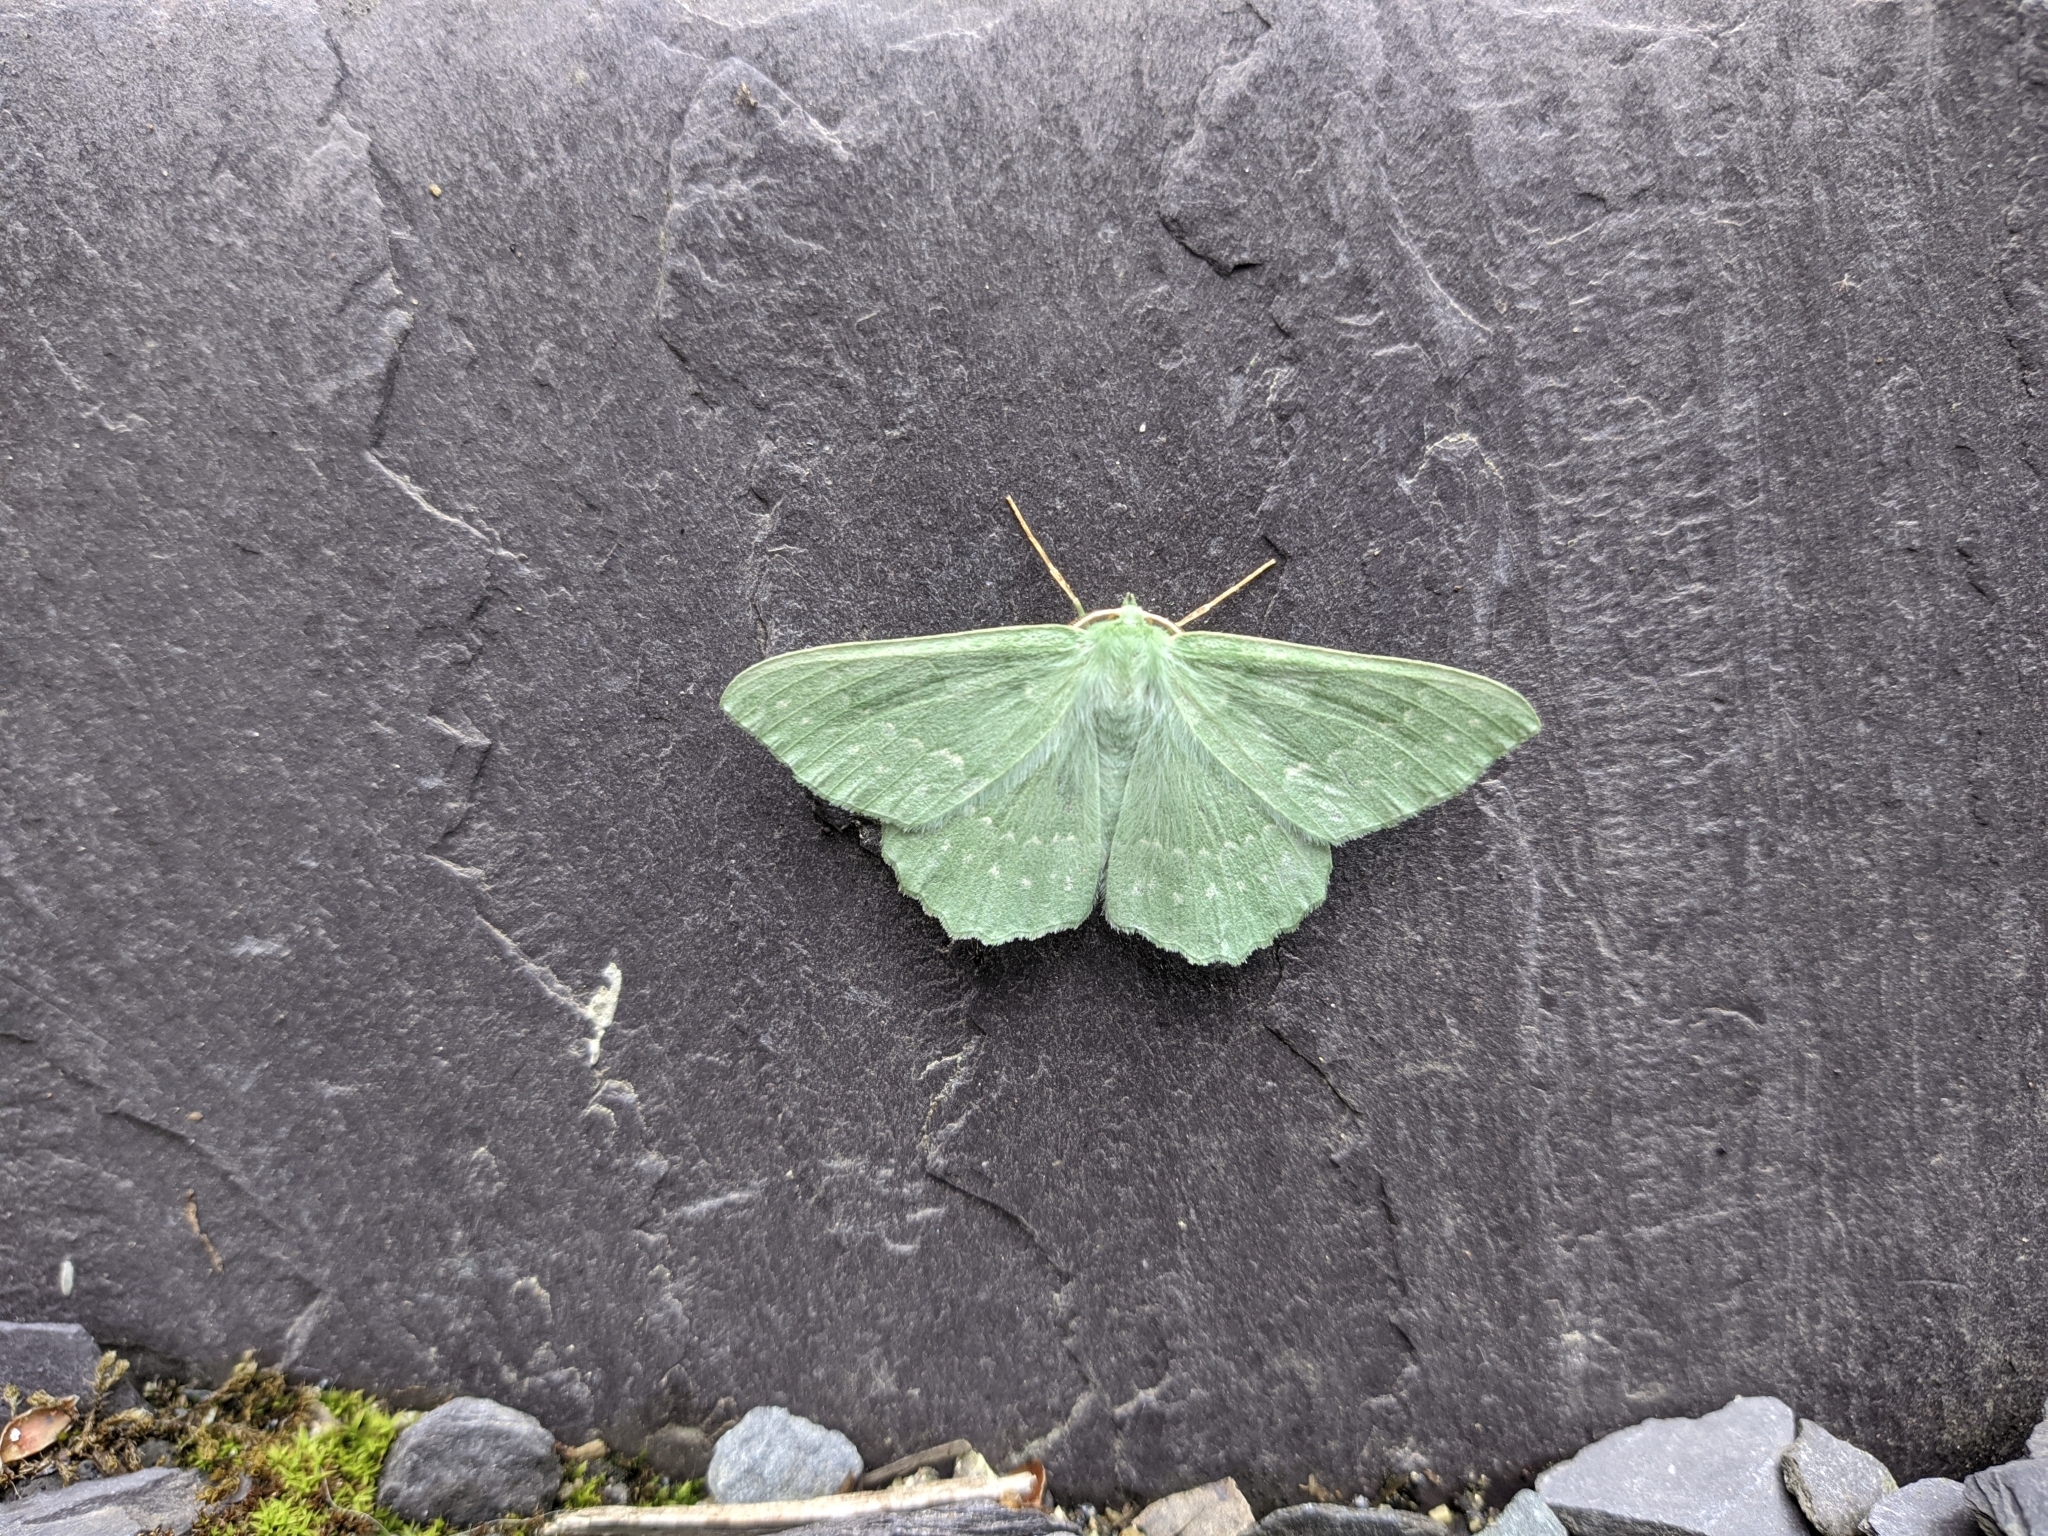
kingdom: Animalia
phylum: Arthropoda
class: Insecta
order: Lepidoptera
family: Geometridae
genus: Geometra
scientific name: Geometra papilionaria
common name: Large emerald
